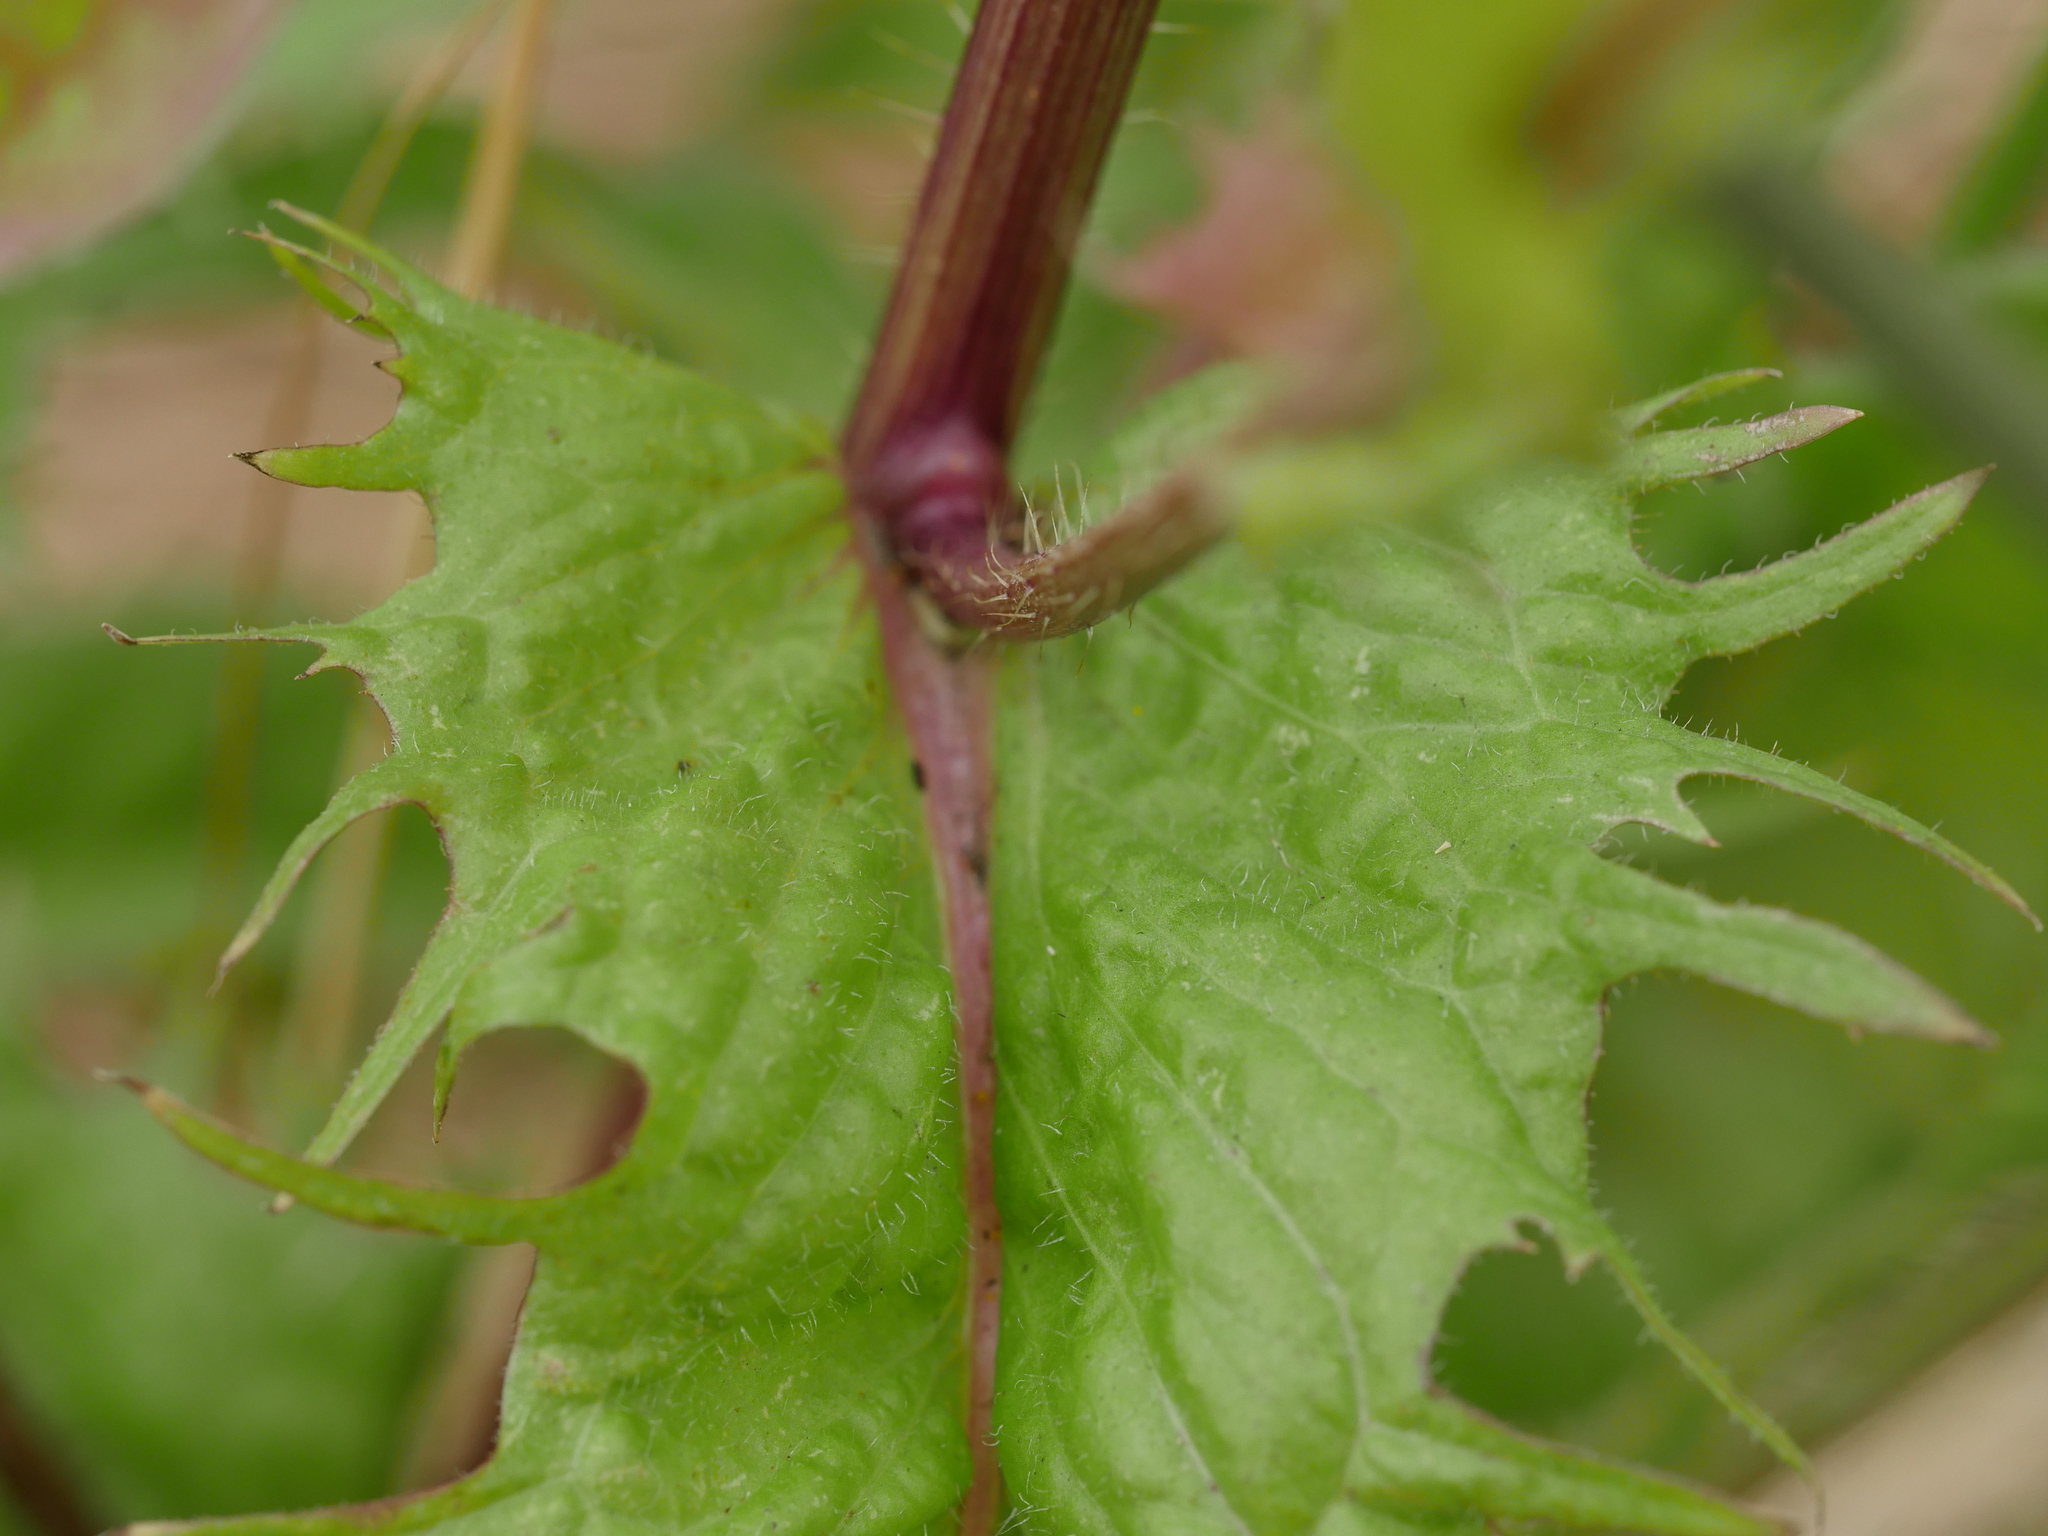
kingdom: Plantae
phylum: Tracheophyta
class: Magnoliopsida
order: Asterales
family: Asteraceae
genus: Crepis
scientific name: Crepis setosa
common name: Bristly hawk's-beard
